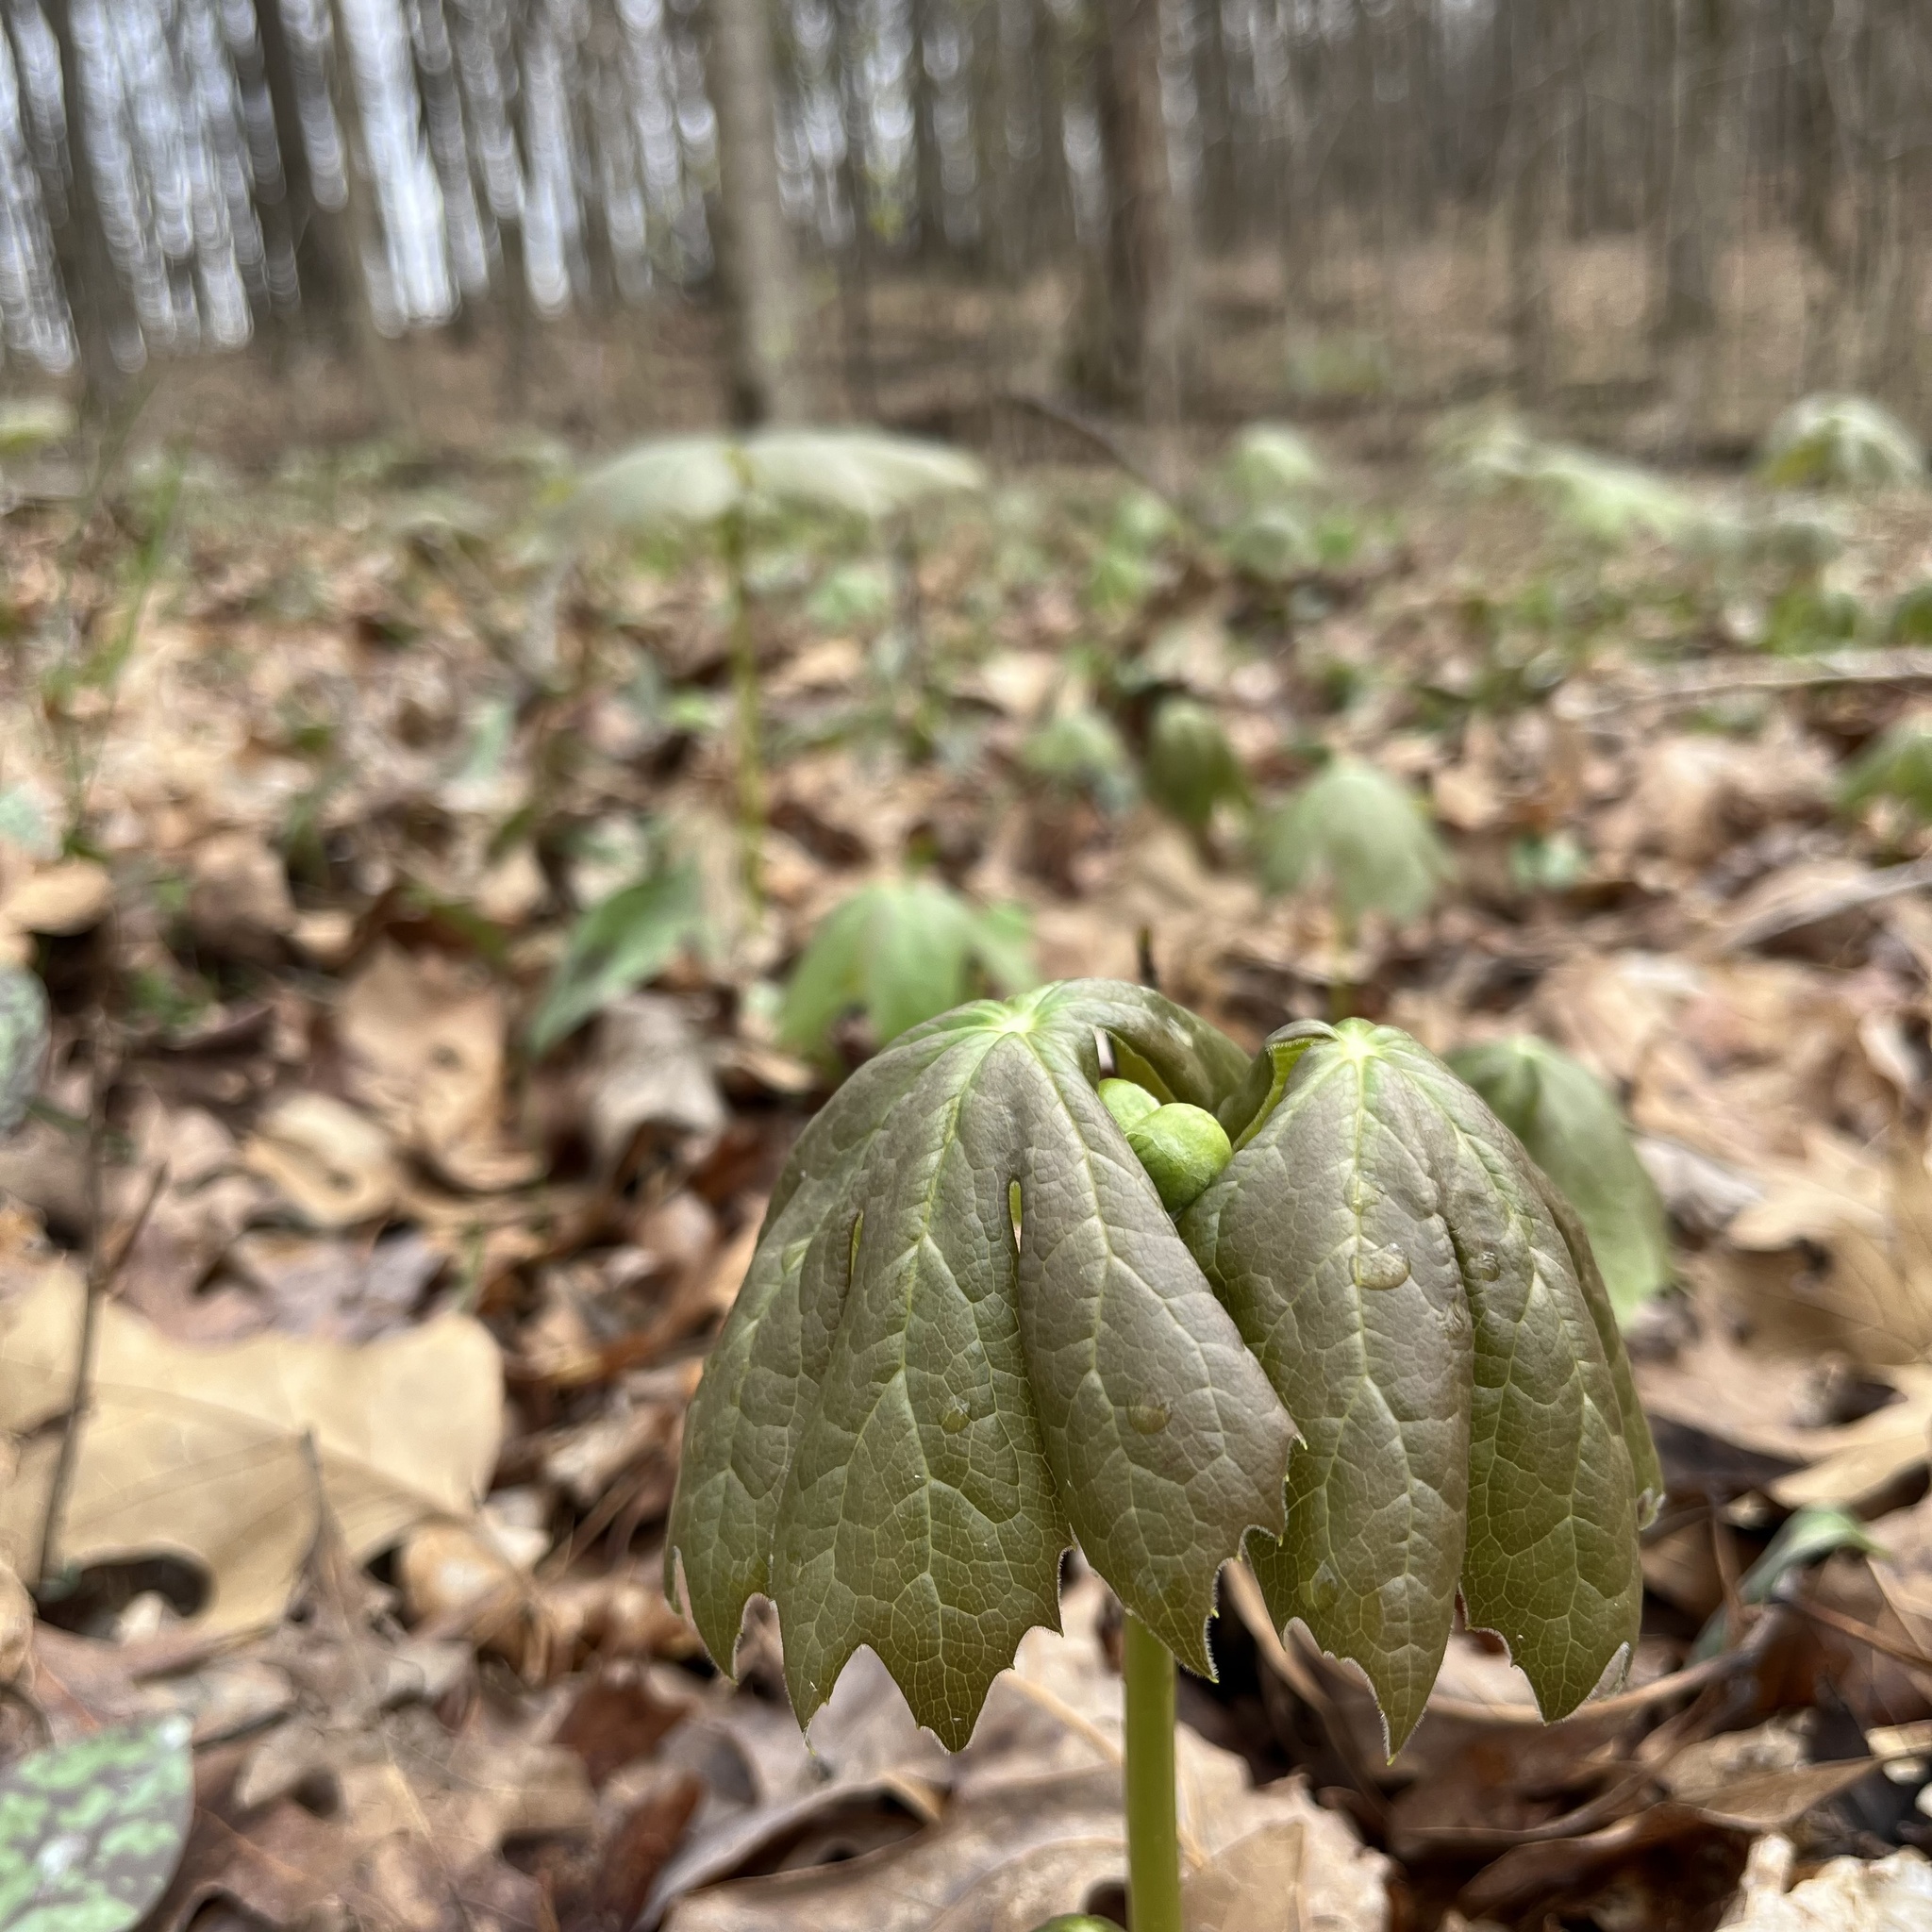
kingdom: Plantae
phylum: Tracheophyta
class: Magnoliopsida
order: Ranunculales
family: Berberidaceae
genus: Podophyllum
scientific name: Podophyllum peltatum
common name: Wild mandrake
